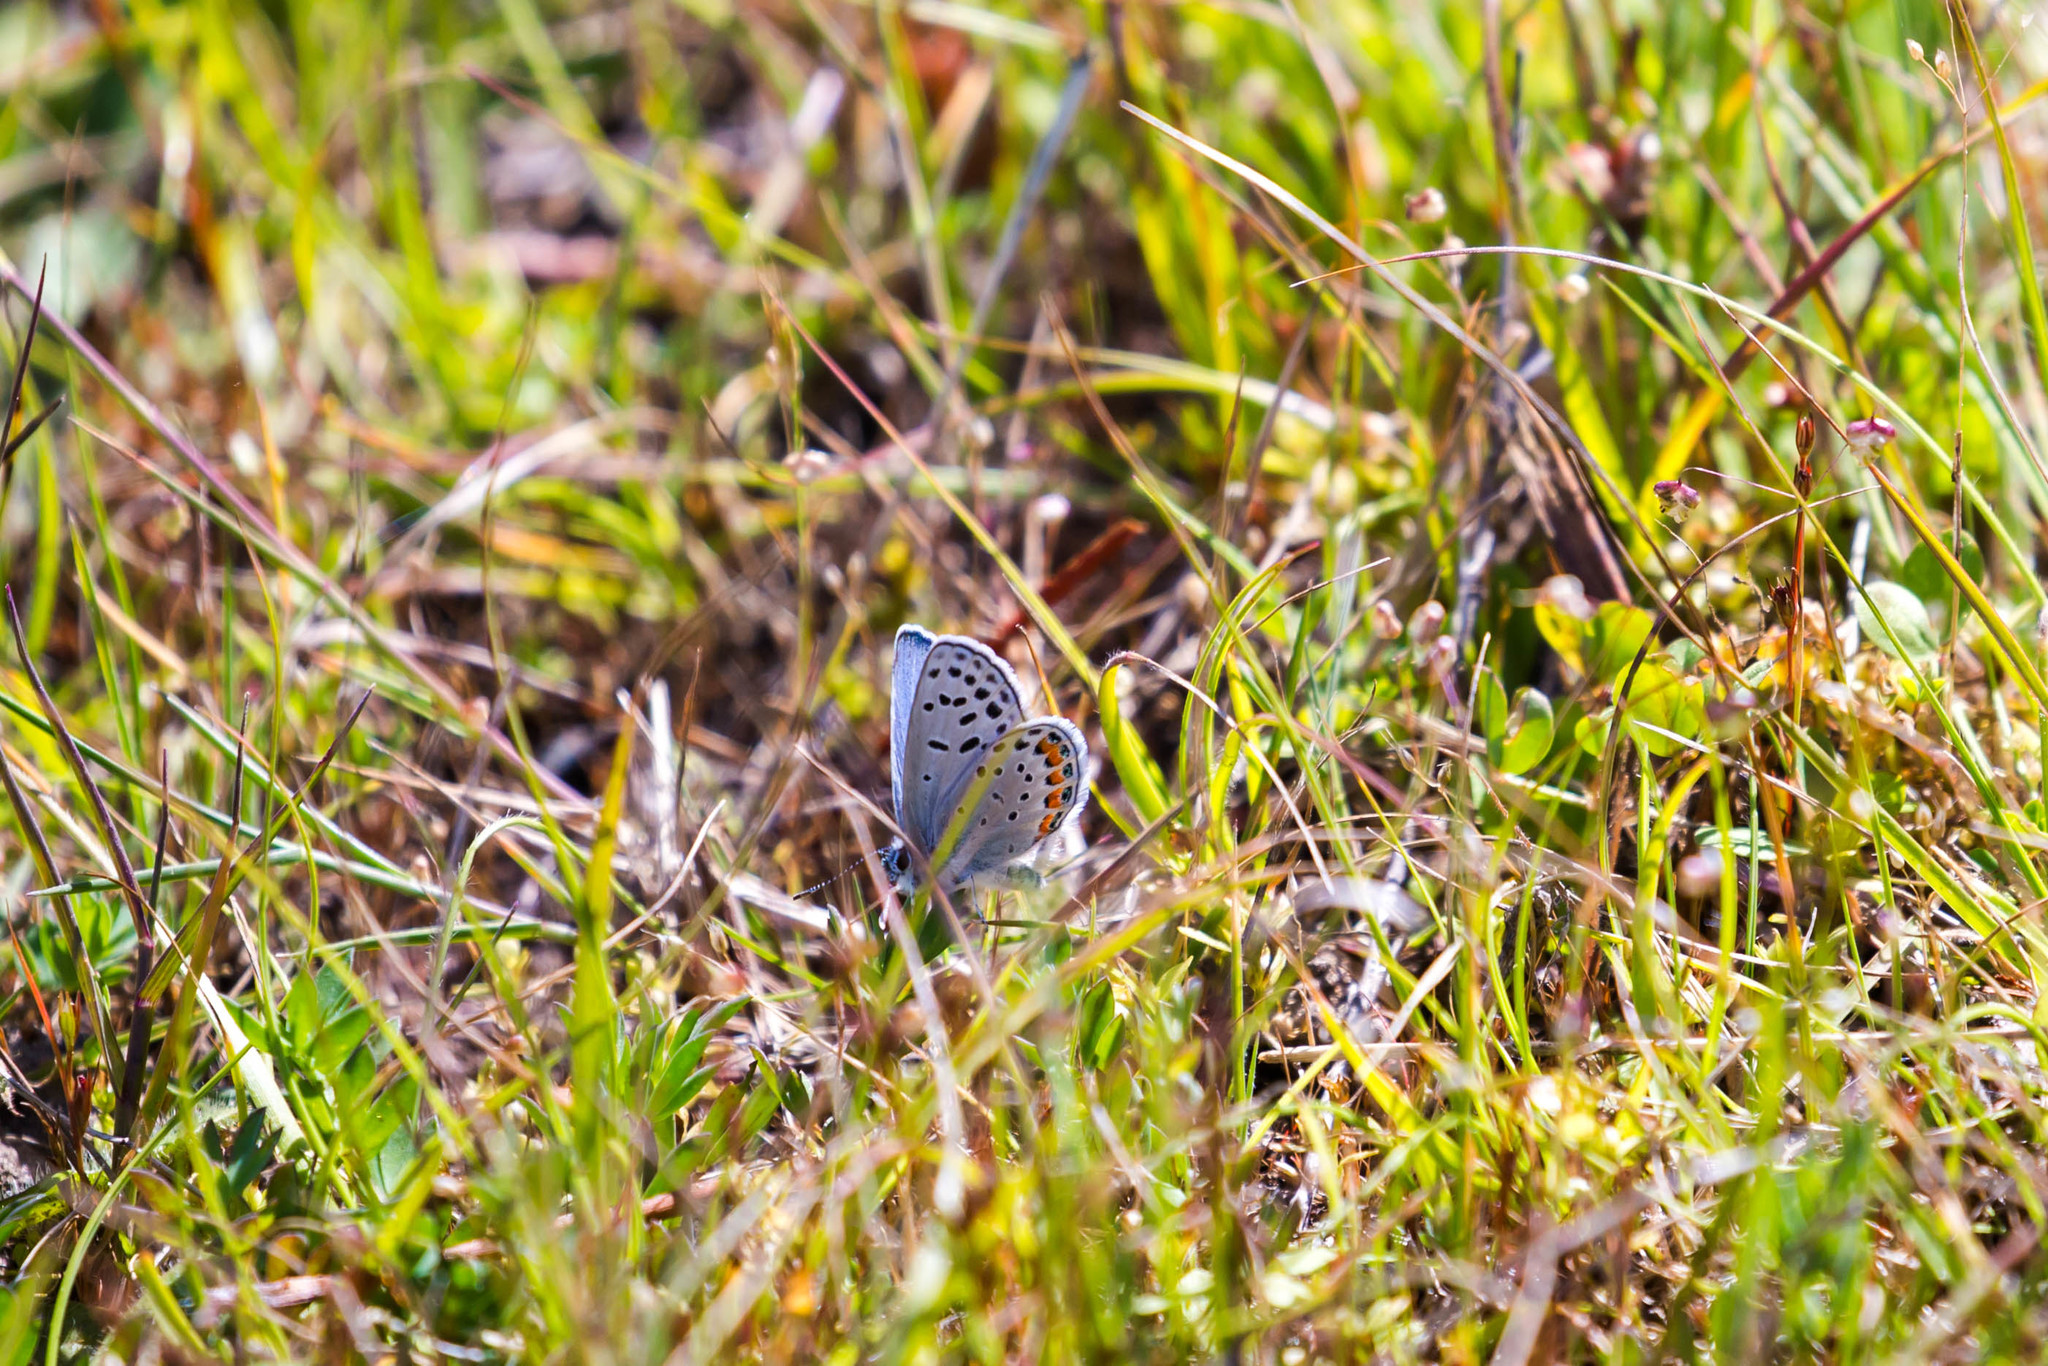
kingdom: Animalia
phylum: Arthropoda
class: Insecta
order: Lepidoptera
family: Lycaenidae
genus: Icaricia
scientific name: Icaricia acmon
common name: Acmon blue
